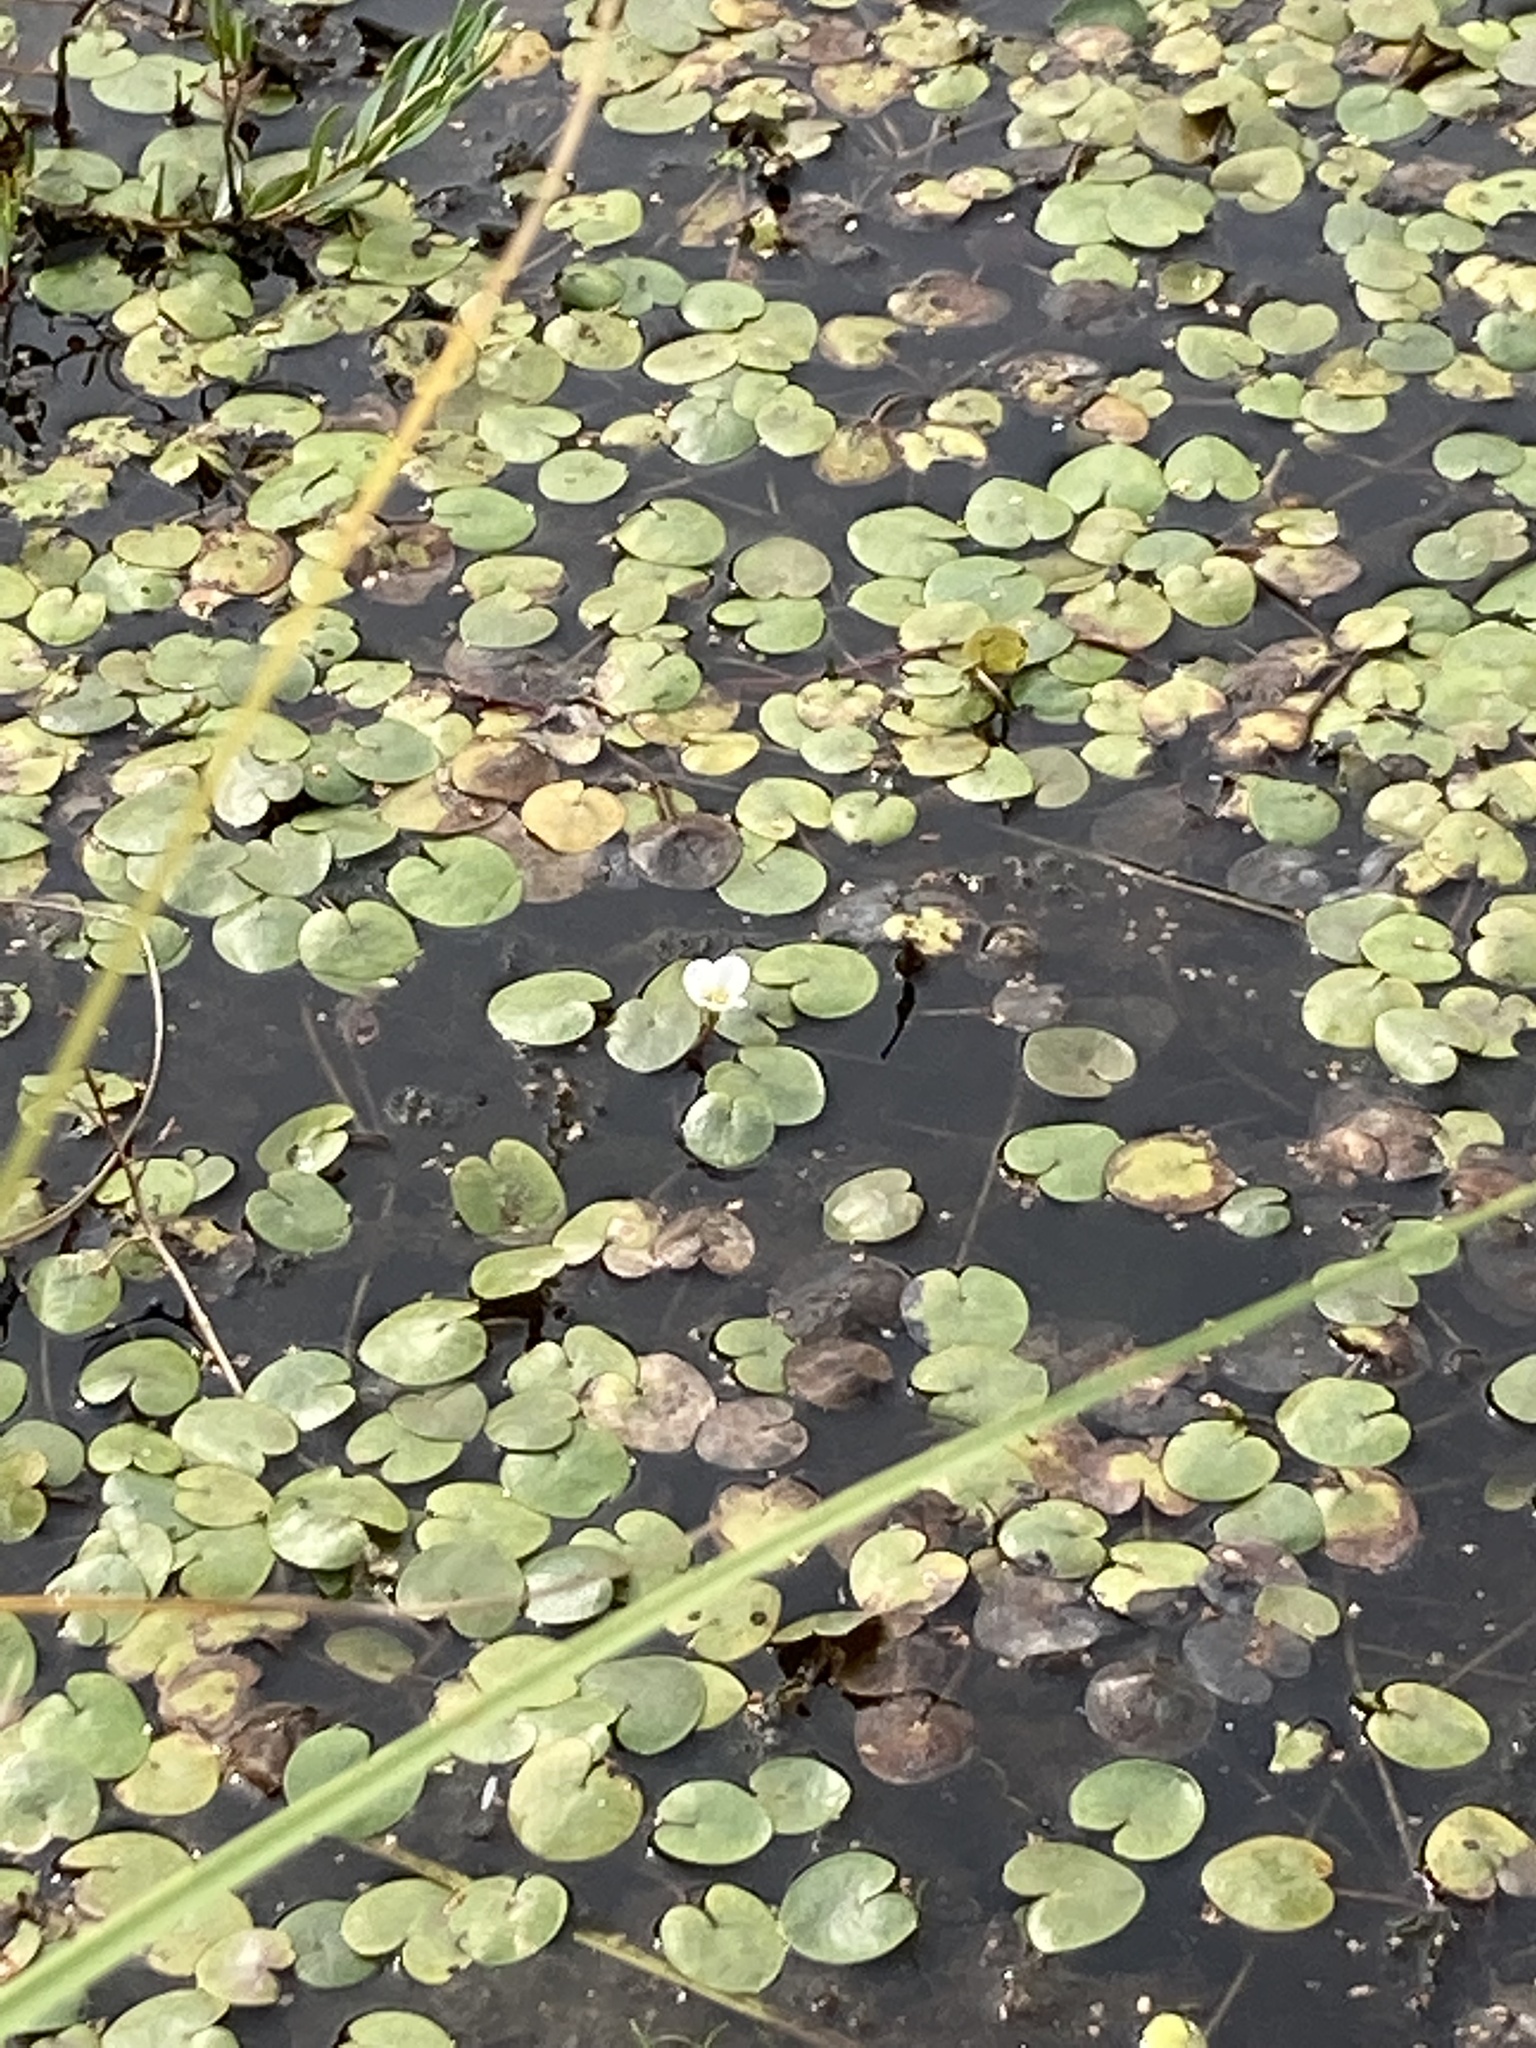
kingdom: Plantae
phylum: Tracheophyta
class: Liliopsida
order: Alismatales
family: Hydrocharitaceae
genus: Hydrocharis
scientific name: Hydrocharis morsus-ranae
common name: Frogbit
